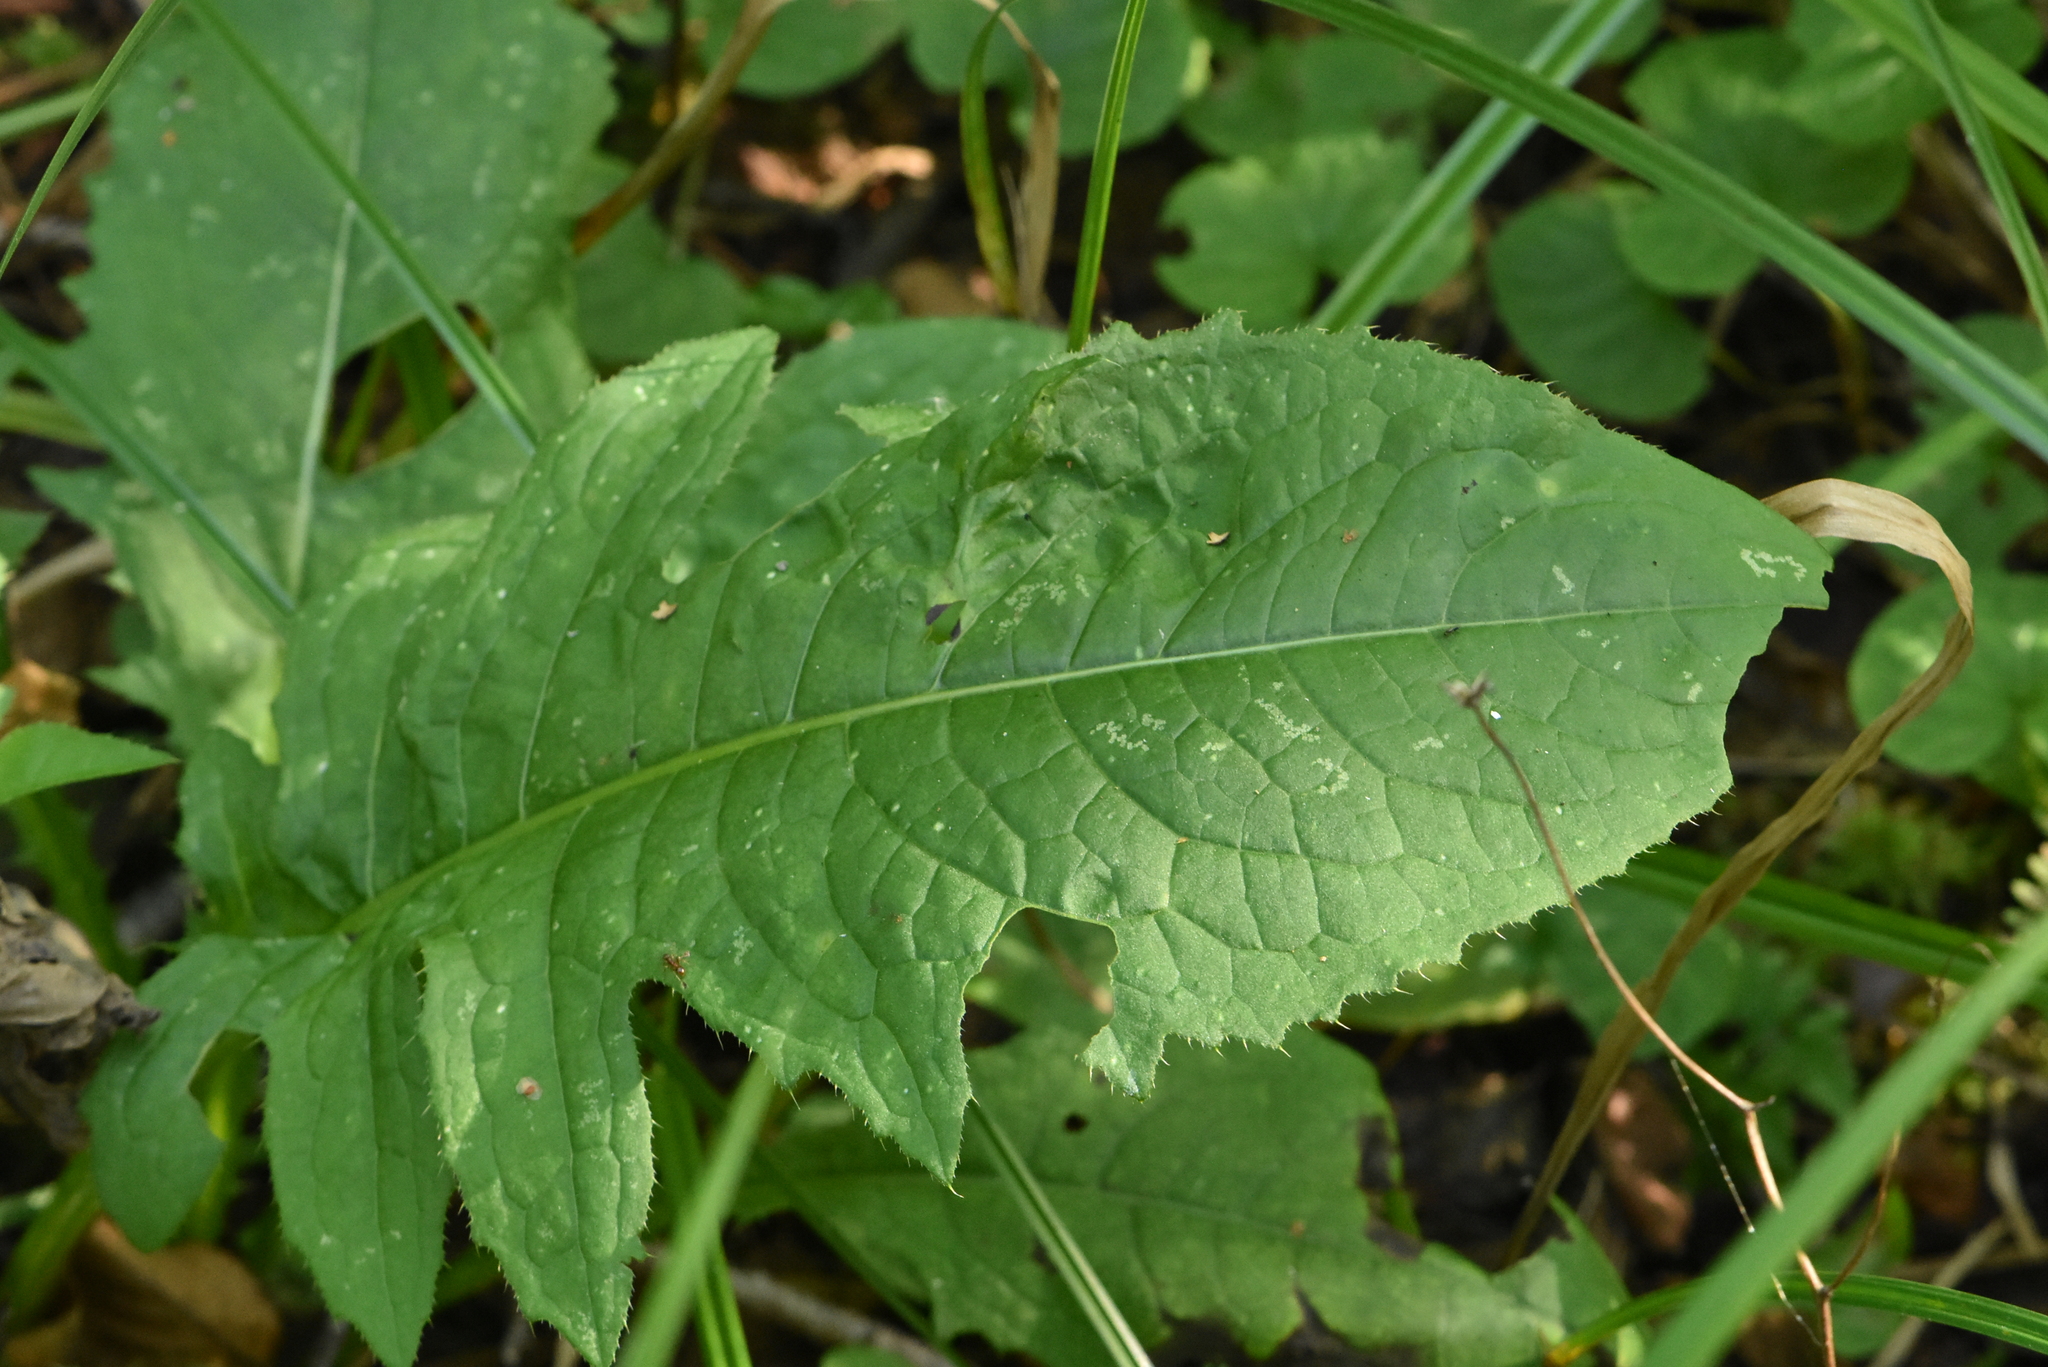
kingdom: Plantae
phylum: Tracheophyta
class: Magnoliopsida
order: Asterales
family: Asteraceae
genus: Cirsium
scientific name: Cirsium oleraceum
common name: Cabbage thistle
